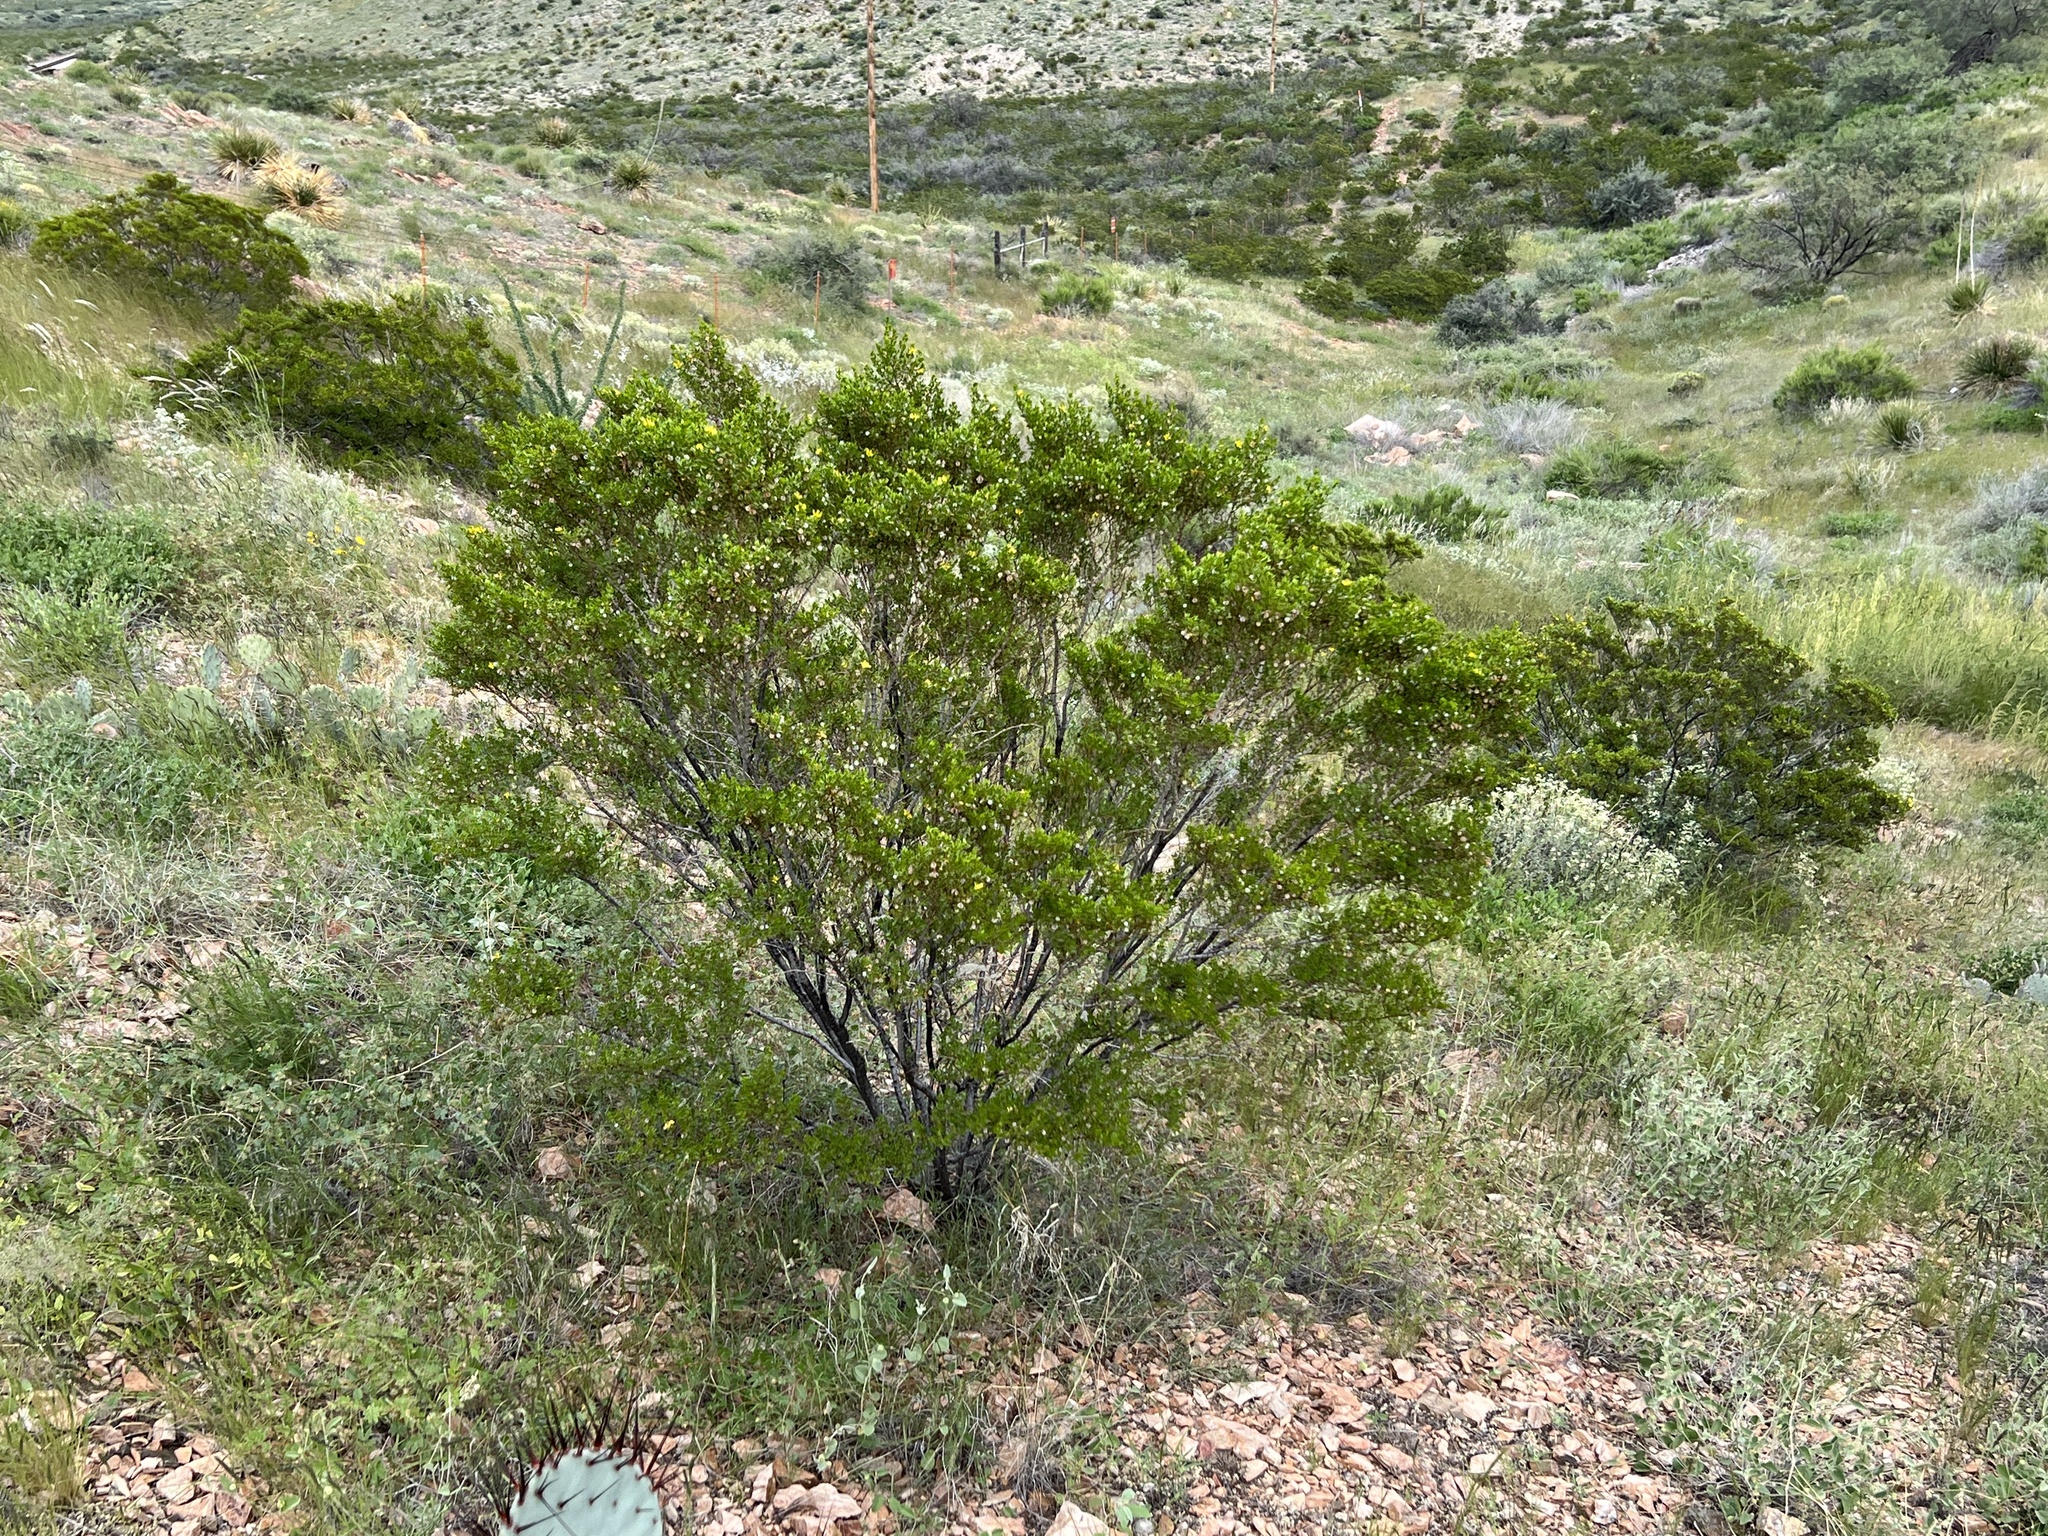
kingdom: Plantae
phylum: Tracheophyta
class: Magnoliopsida
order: Zygophyllales
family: Zygophyllaceae
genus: Larrea
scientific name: Larrea tridentata
